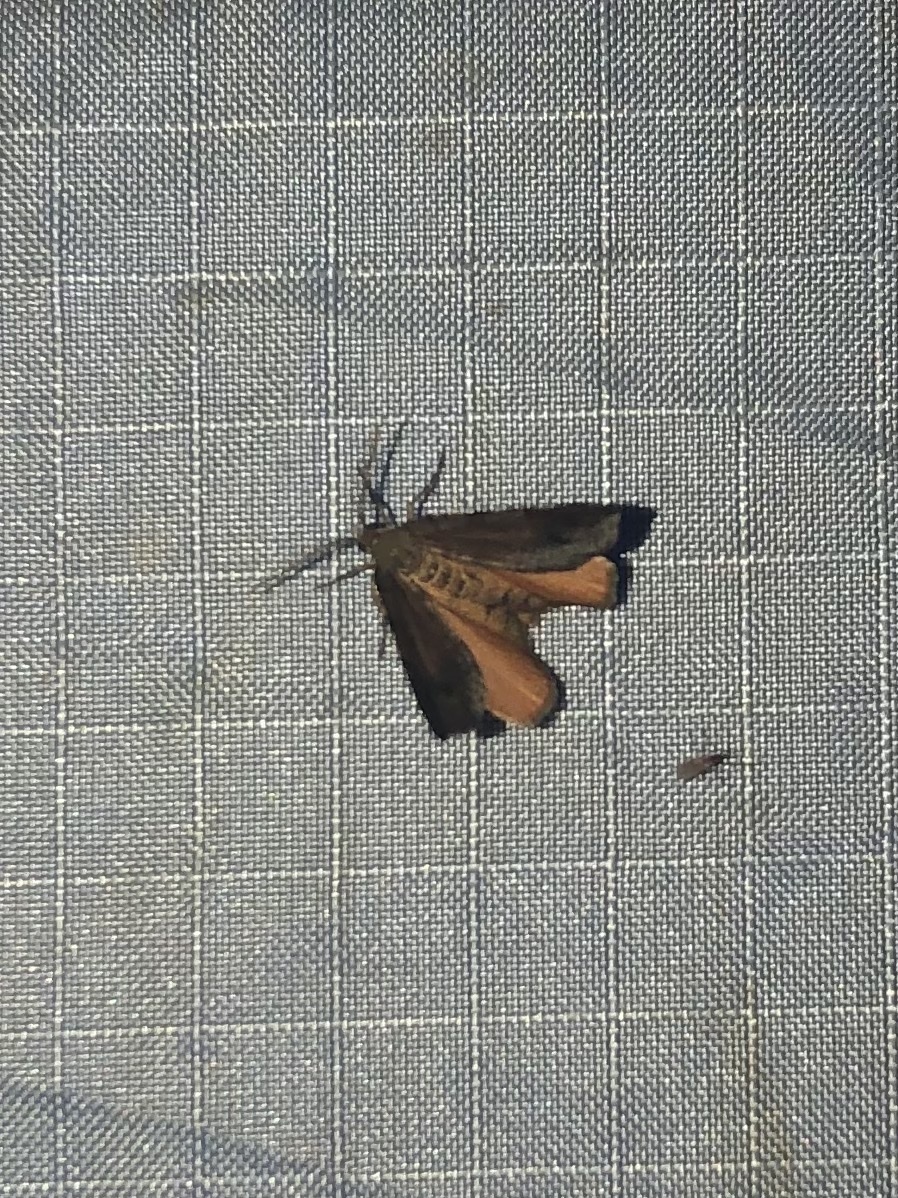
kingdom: Animalia
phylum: Arthropoda
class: Insecta
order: Lepidoptera
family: Geometridae
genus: Mellilla
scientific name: Mellilla xanthometata
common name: Orange wing moth
